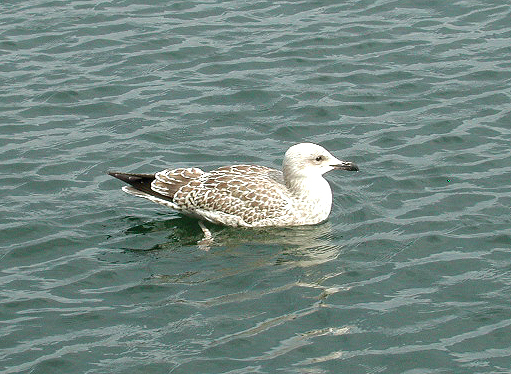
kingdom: Animalia
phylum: Chordata
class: Aves
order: Charadriiformes
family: Laridae
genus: Larus
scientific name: Larus argentatus
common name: Herring gull
